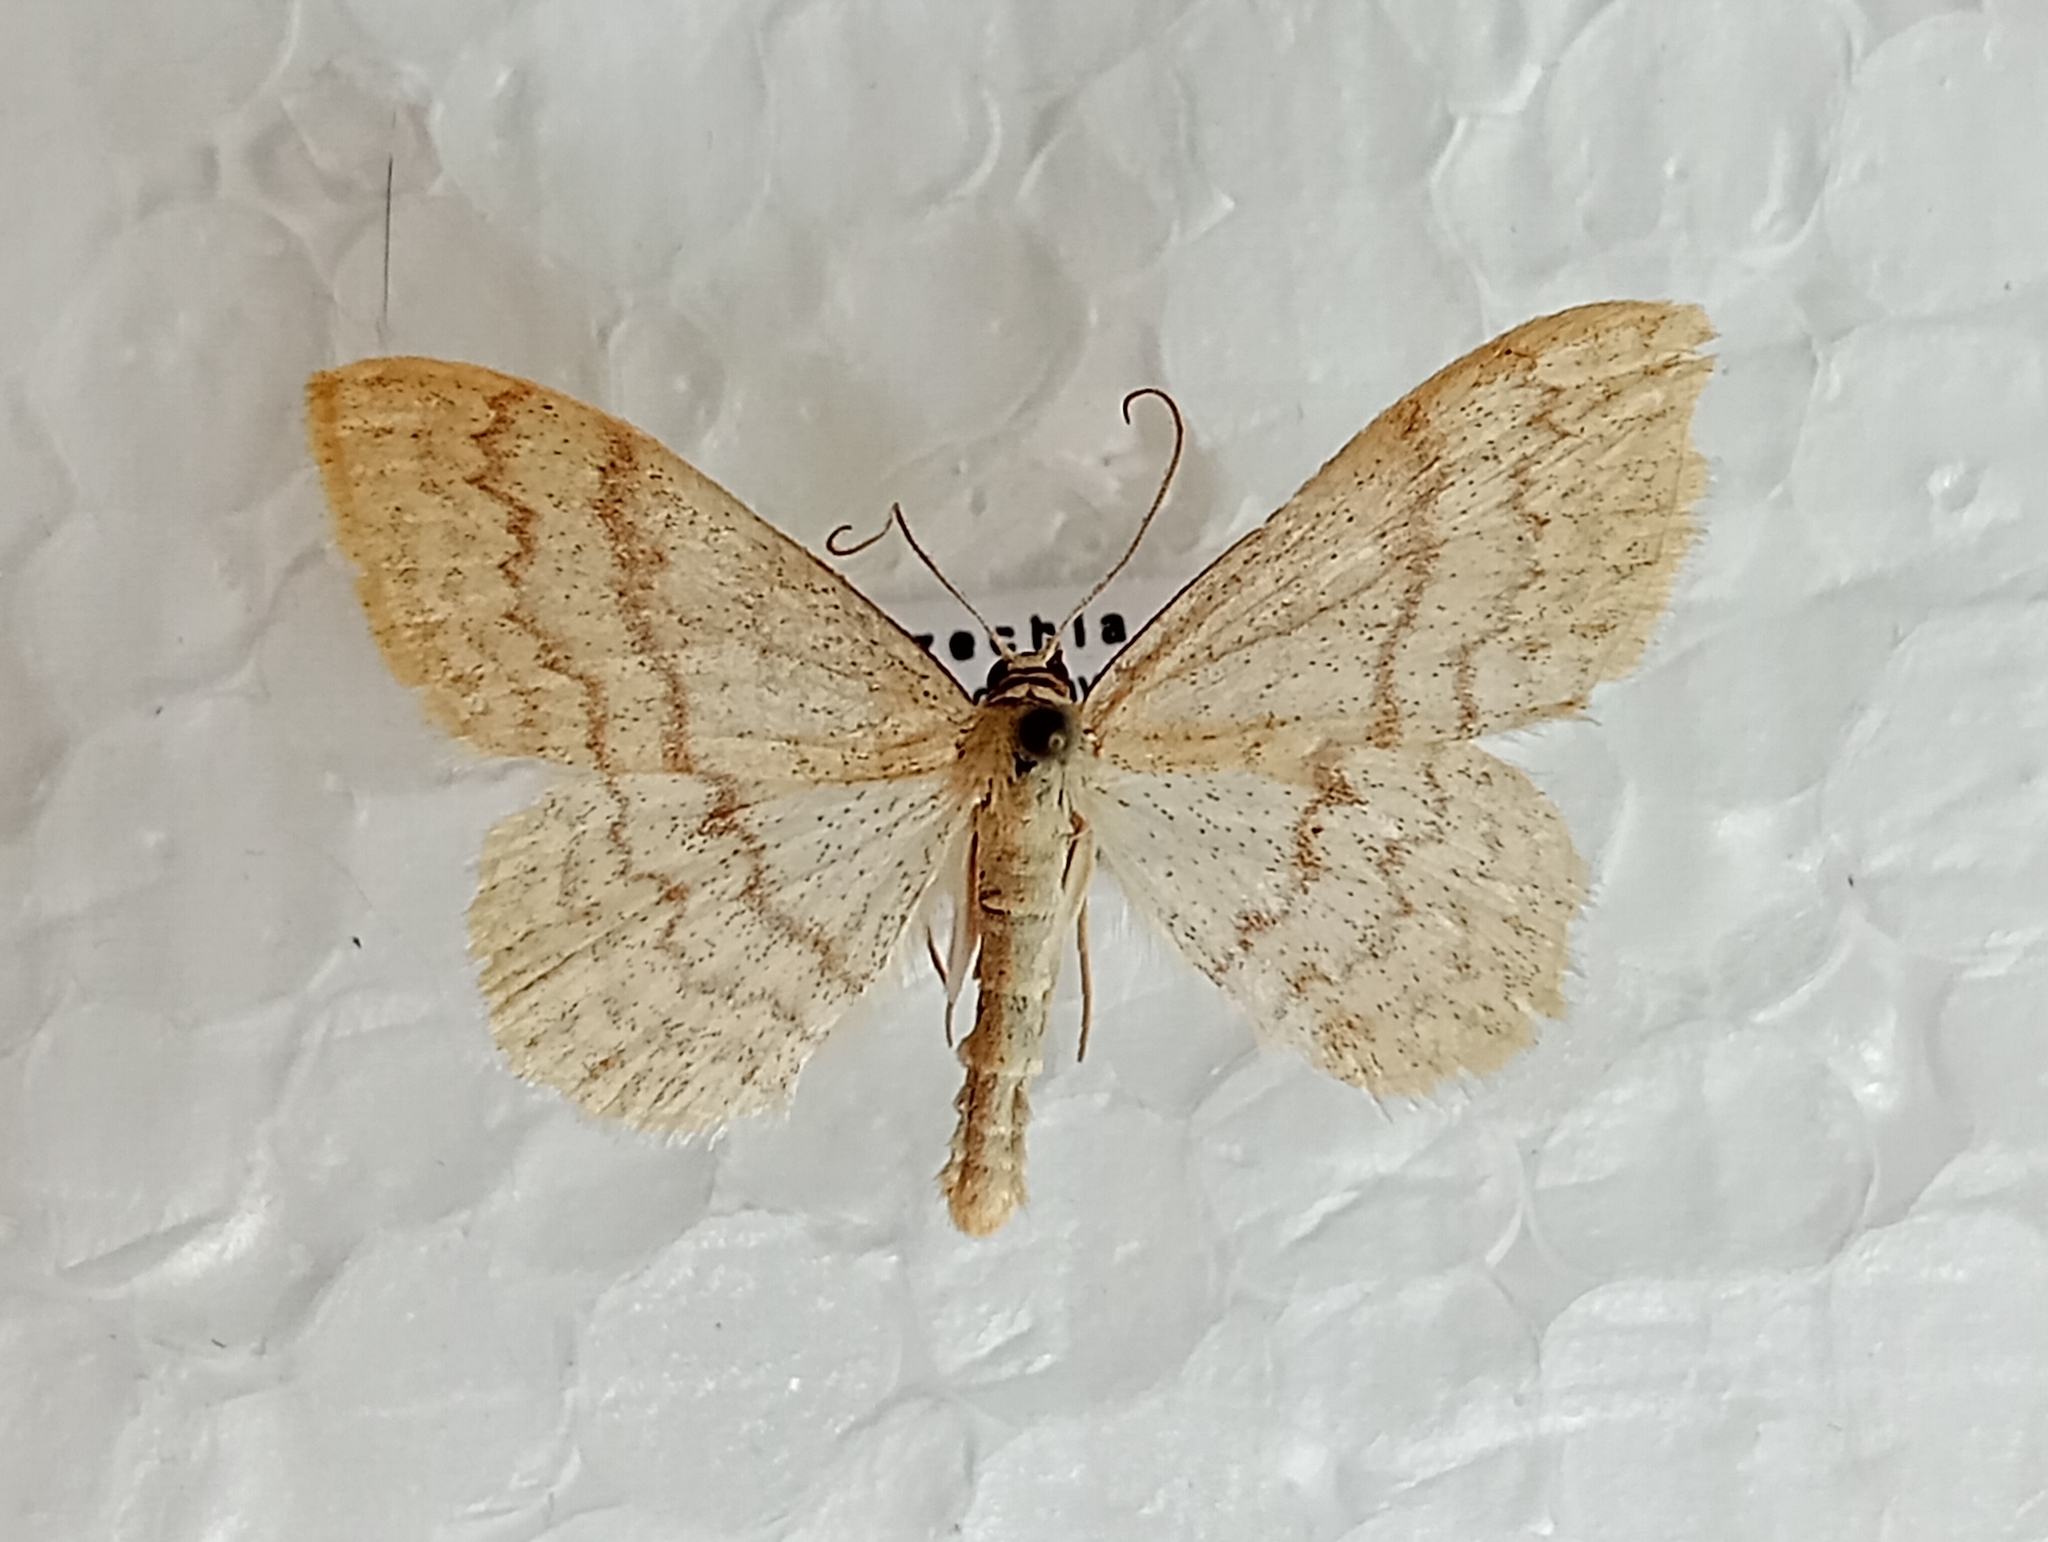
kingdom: Animalia
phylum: Arthropoda
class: Insecta
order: Lepidoptera
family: Geometridae
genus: Scopula
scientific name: Scopula floslactata
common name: Cream wave
